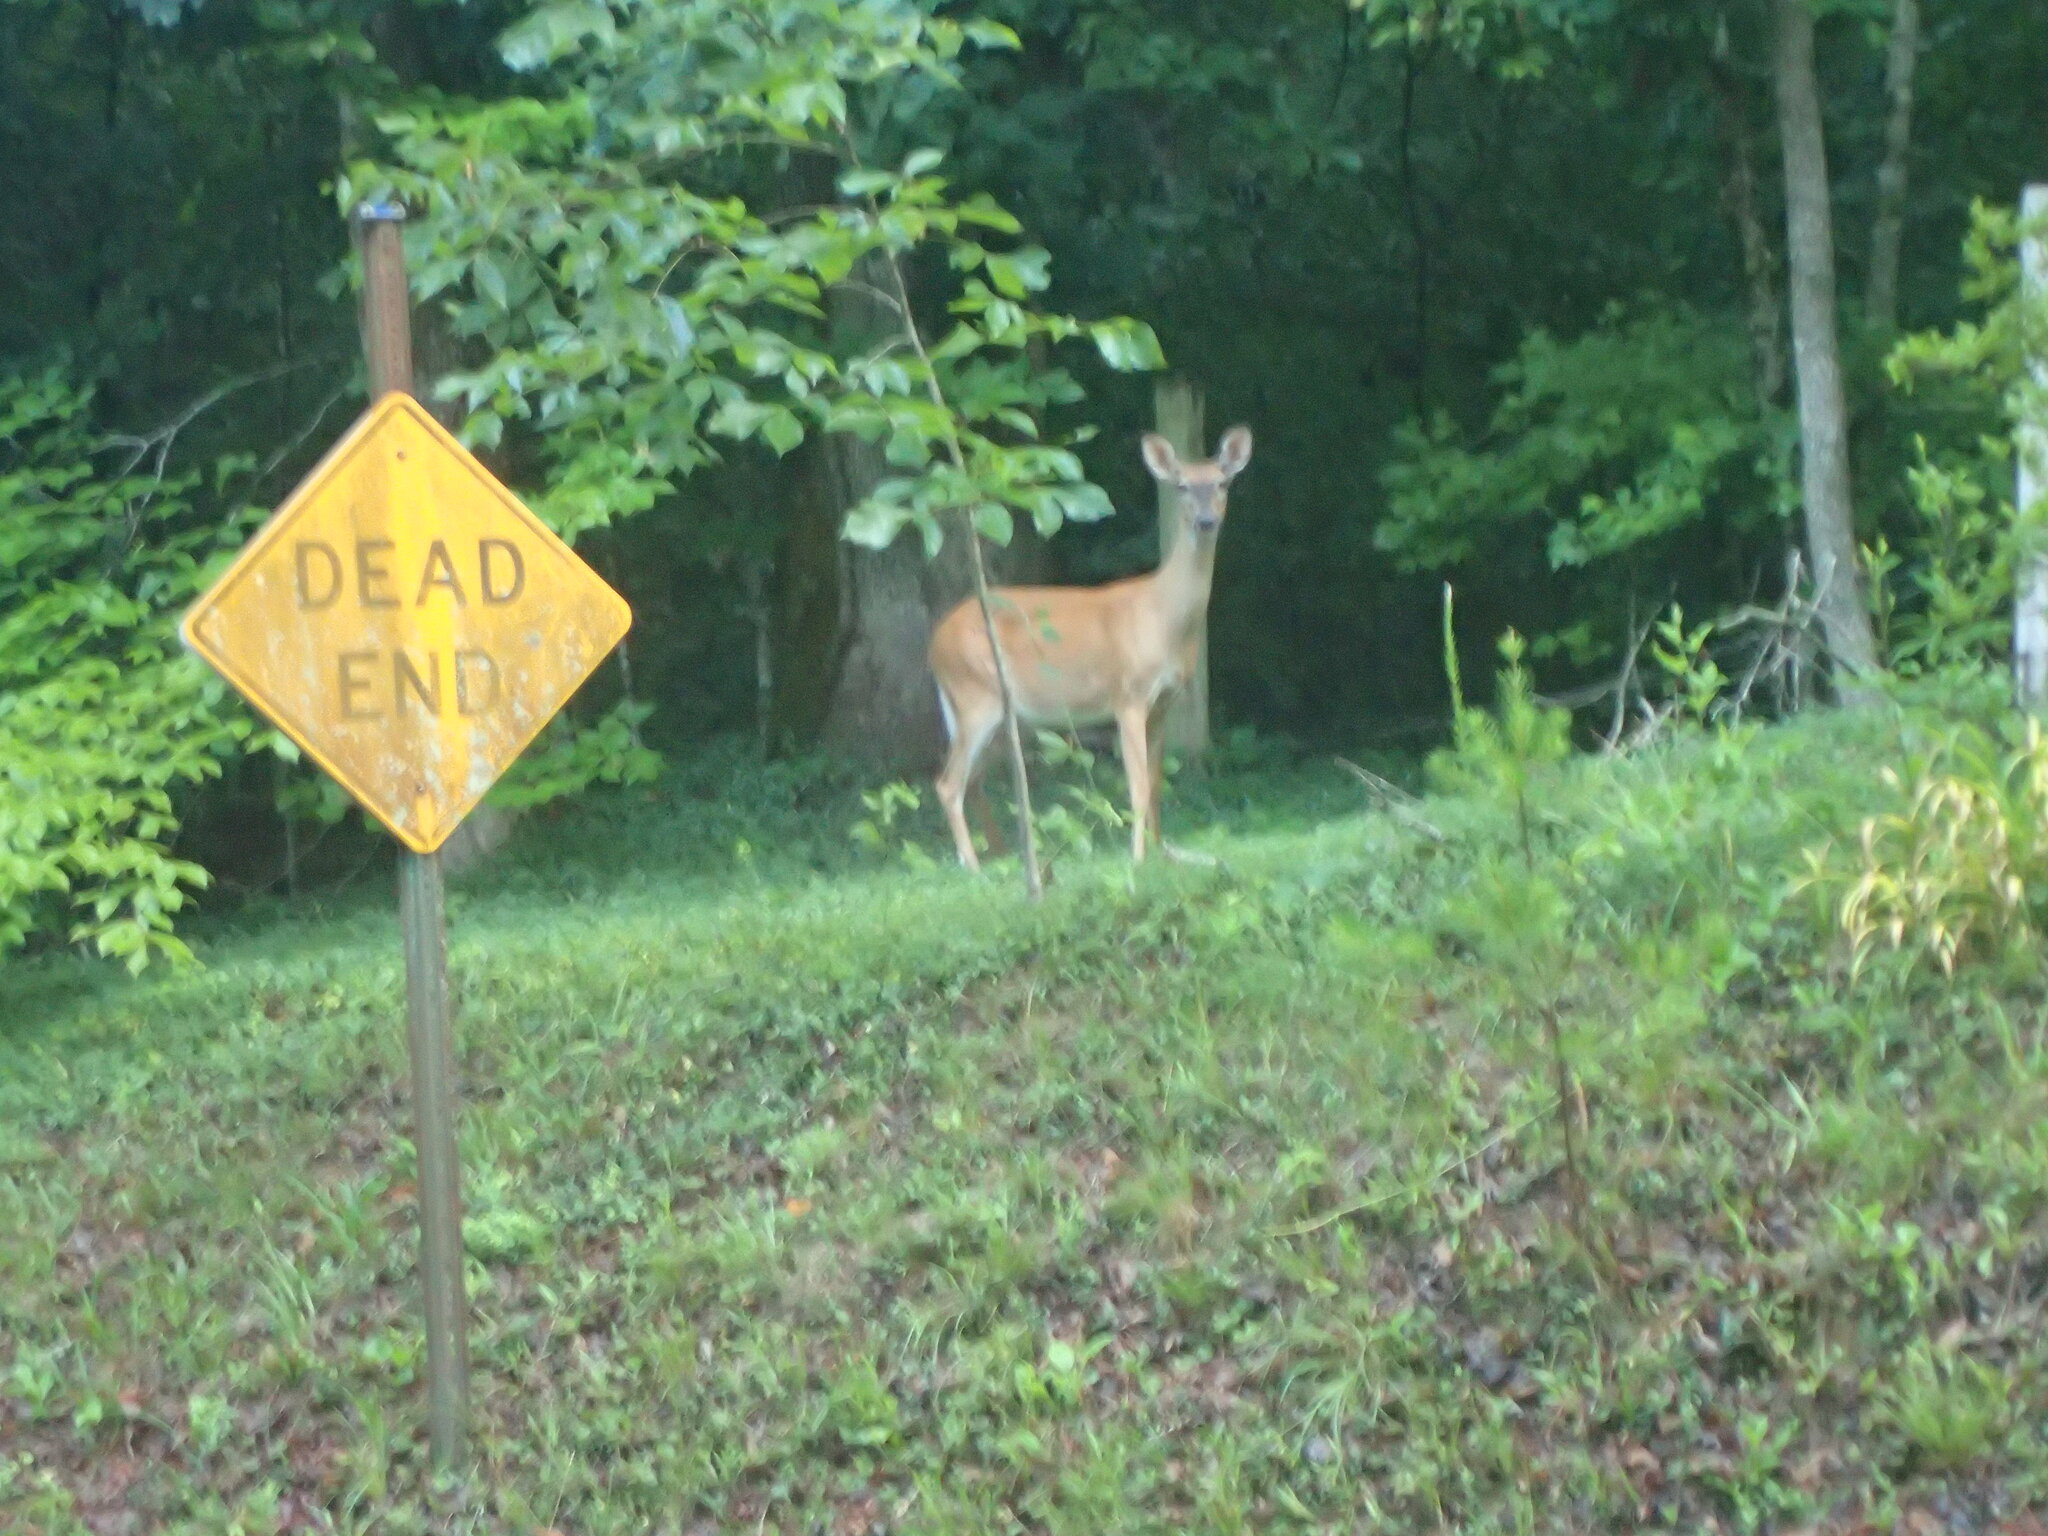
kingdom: Animalia
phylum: Chordata
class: Mammalia
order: Artiodactyla
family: Cervidae
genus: Odocoileus
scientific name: Odocoileus virginianus
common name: White-tailed deer
